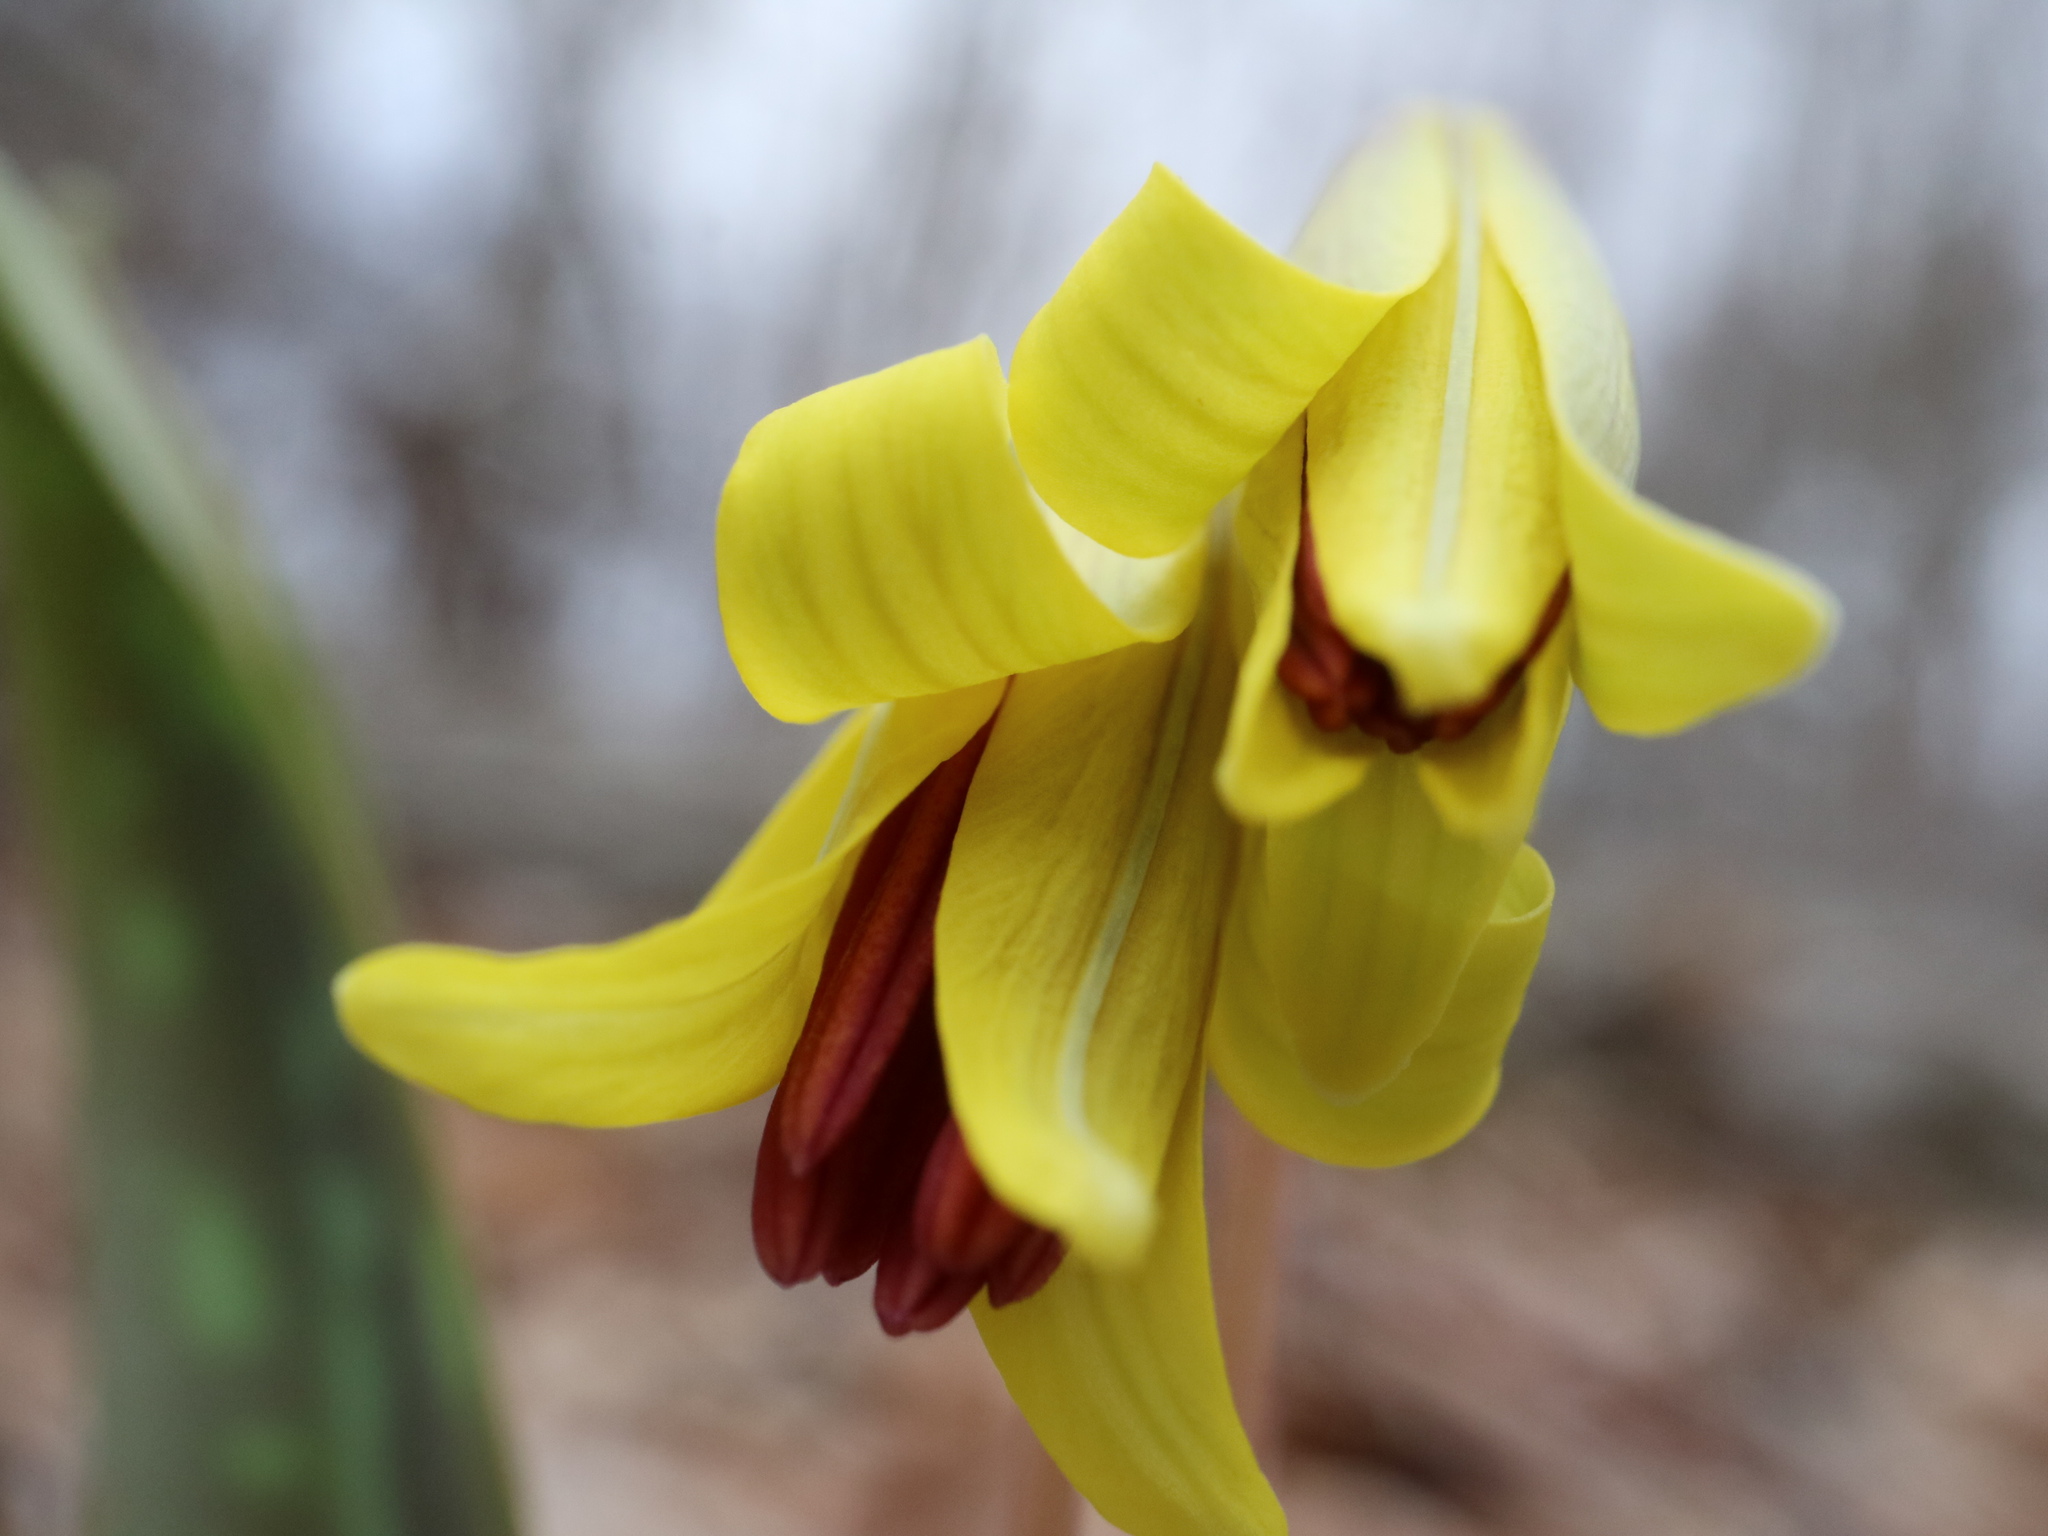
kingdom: Plantae
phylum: Tracheophyta
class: Liliopsida
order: Liliales
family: Liliaceae
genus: Erythronium
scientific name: Erythronium americanum
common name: Yellow adder's-tongue
